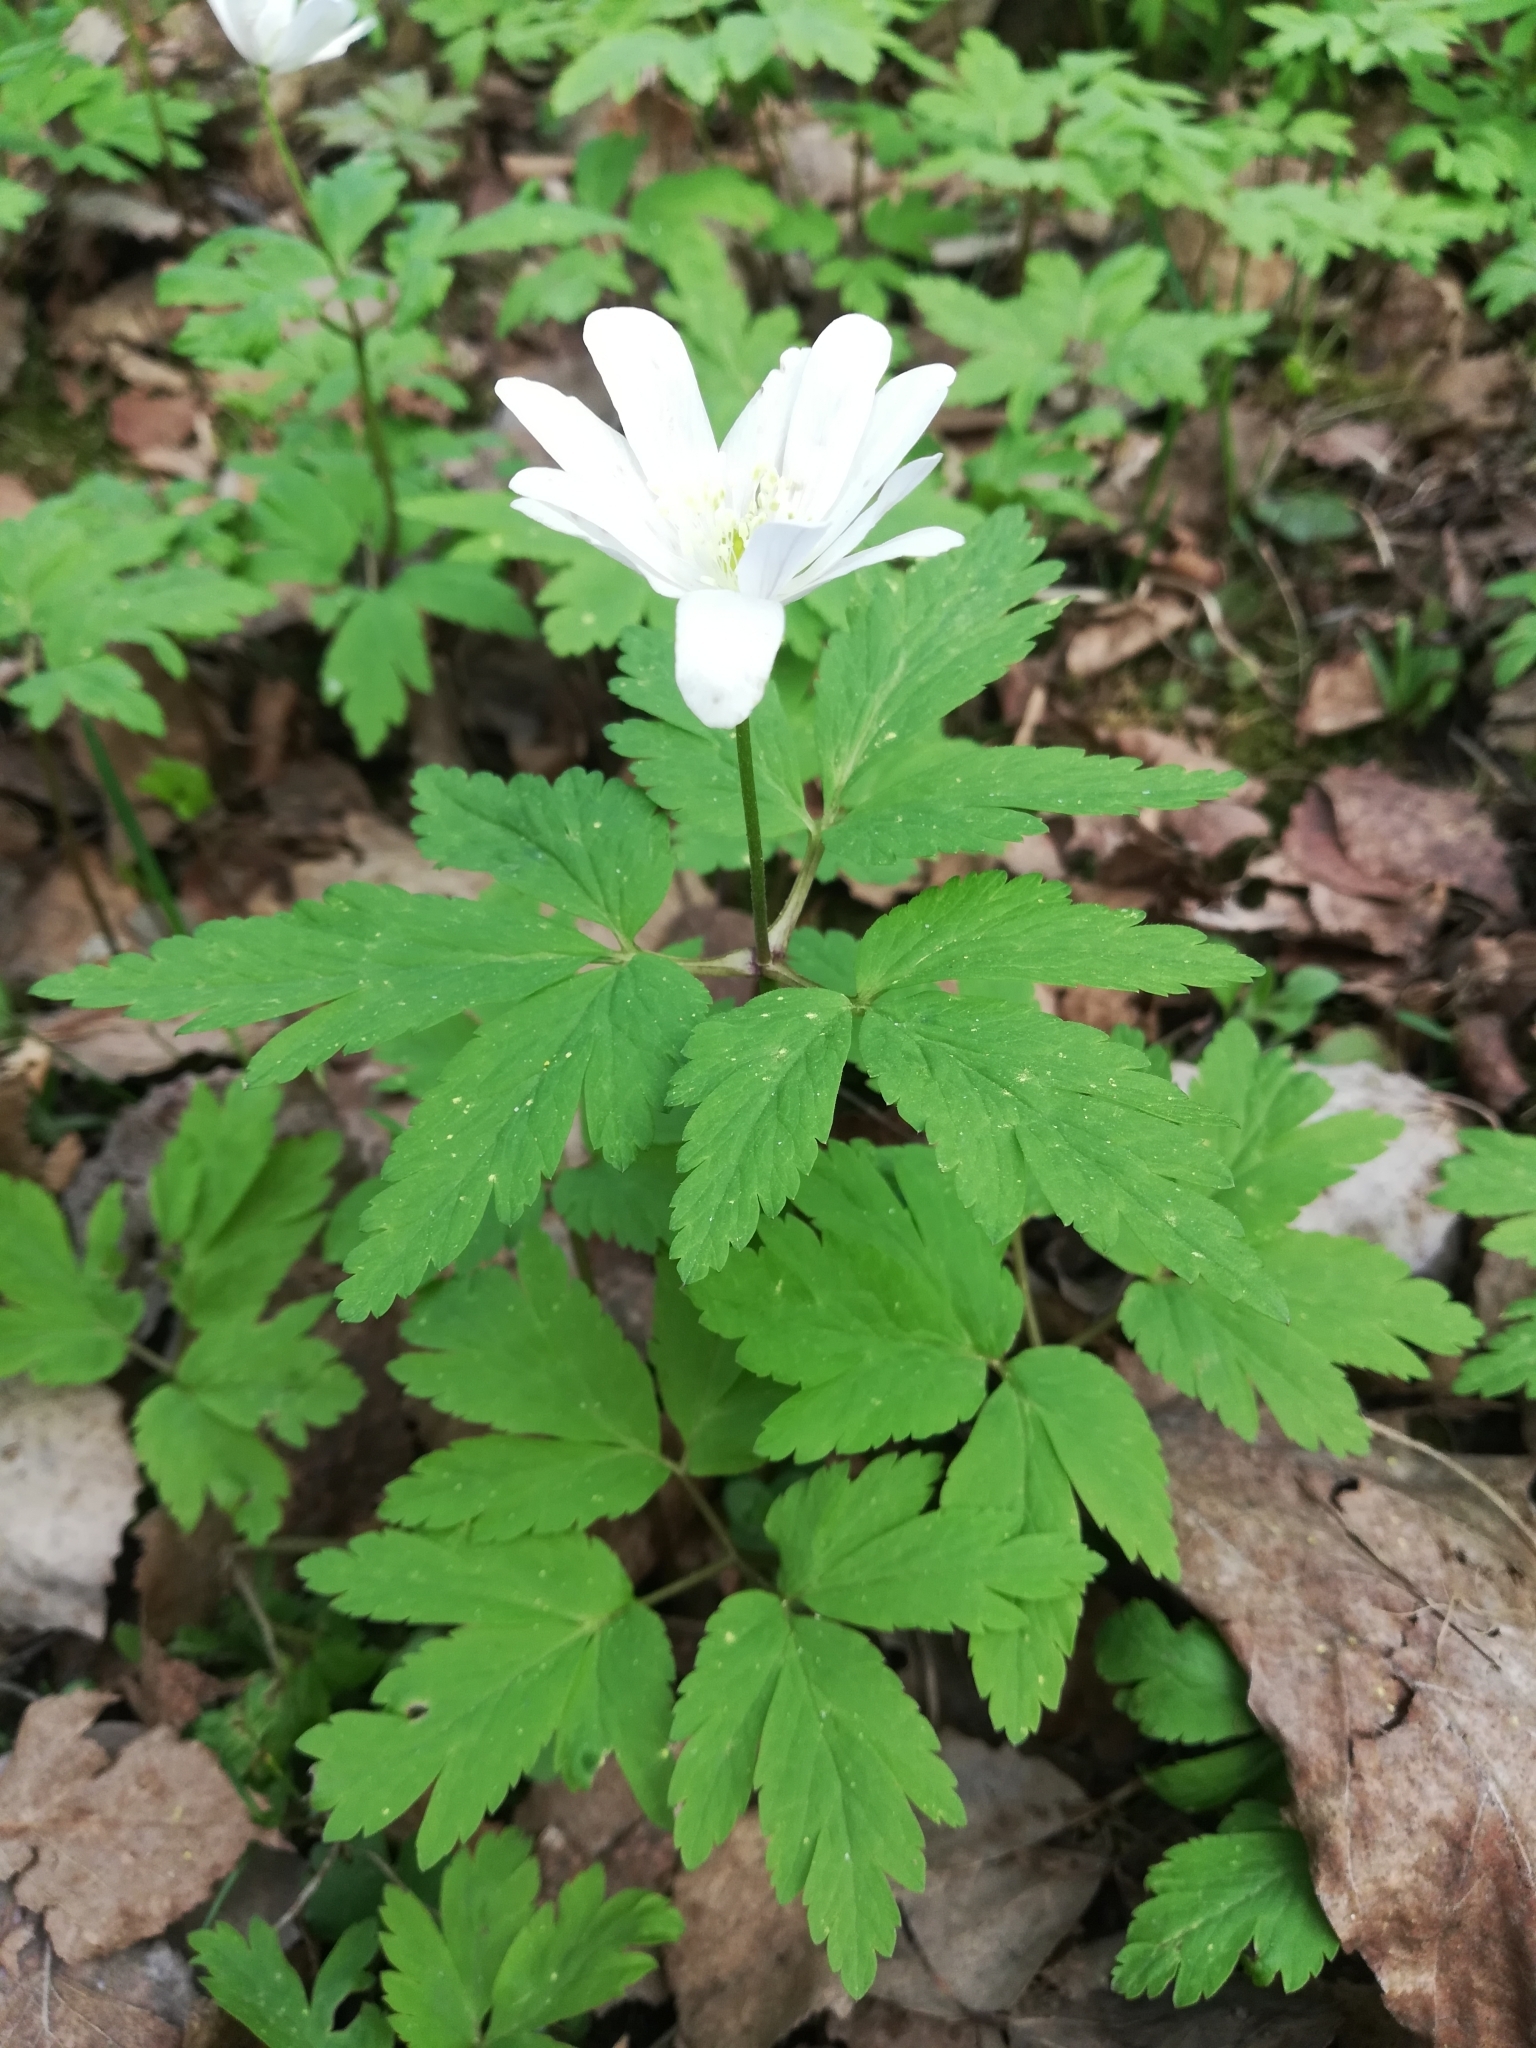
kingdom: Plantae
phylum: Tracheophyta
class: Magnoliopsida
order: Ranunculales
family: Ranunculaceae
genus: Anemone
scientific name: Anemone altaica
